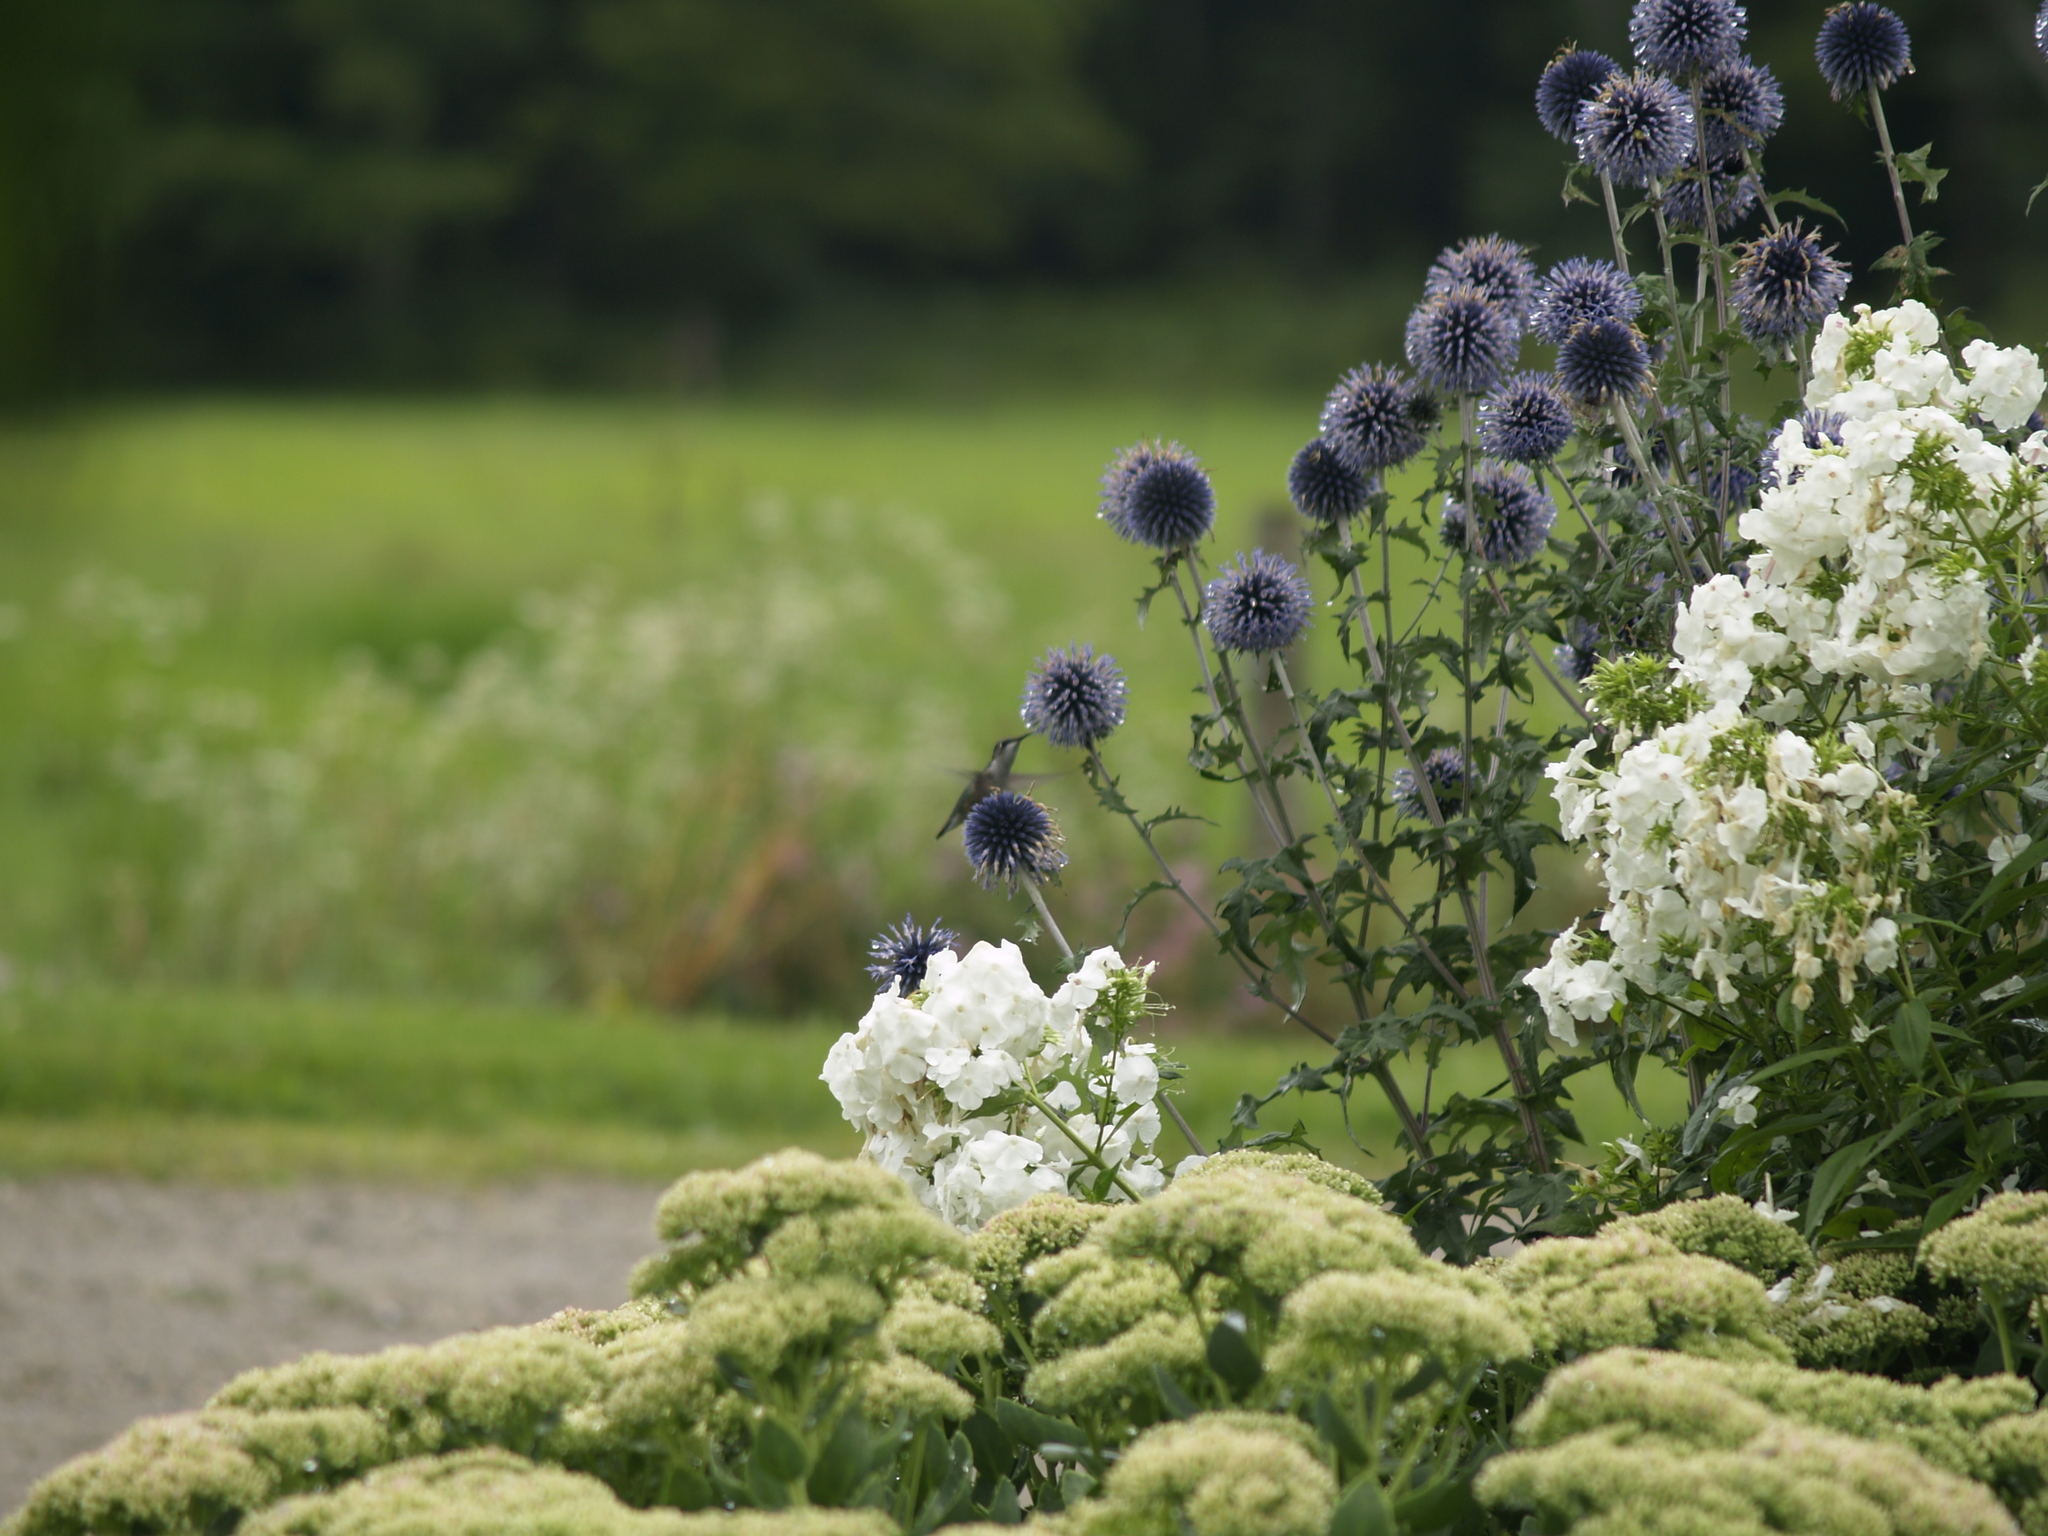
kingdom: Animalia
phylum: Chordata
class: Aves
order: Apodiformes
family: Trochilidae
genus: Archilochus
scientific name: Archilochus colubris
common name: Ruby-throated hummingbird
